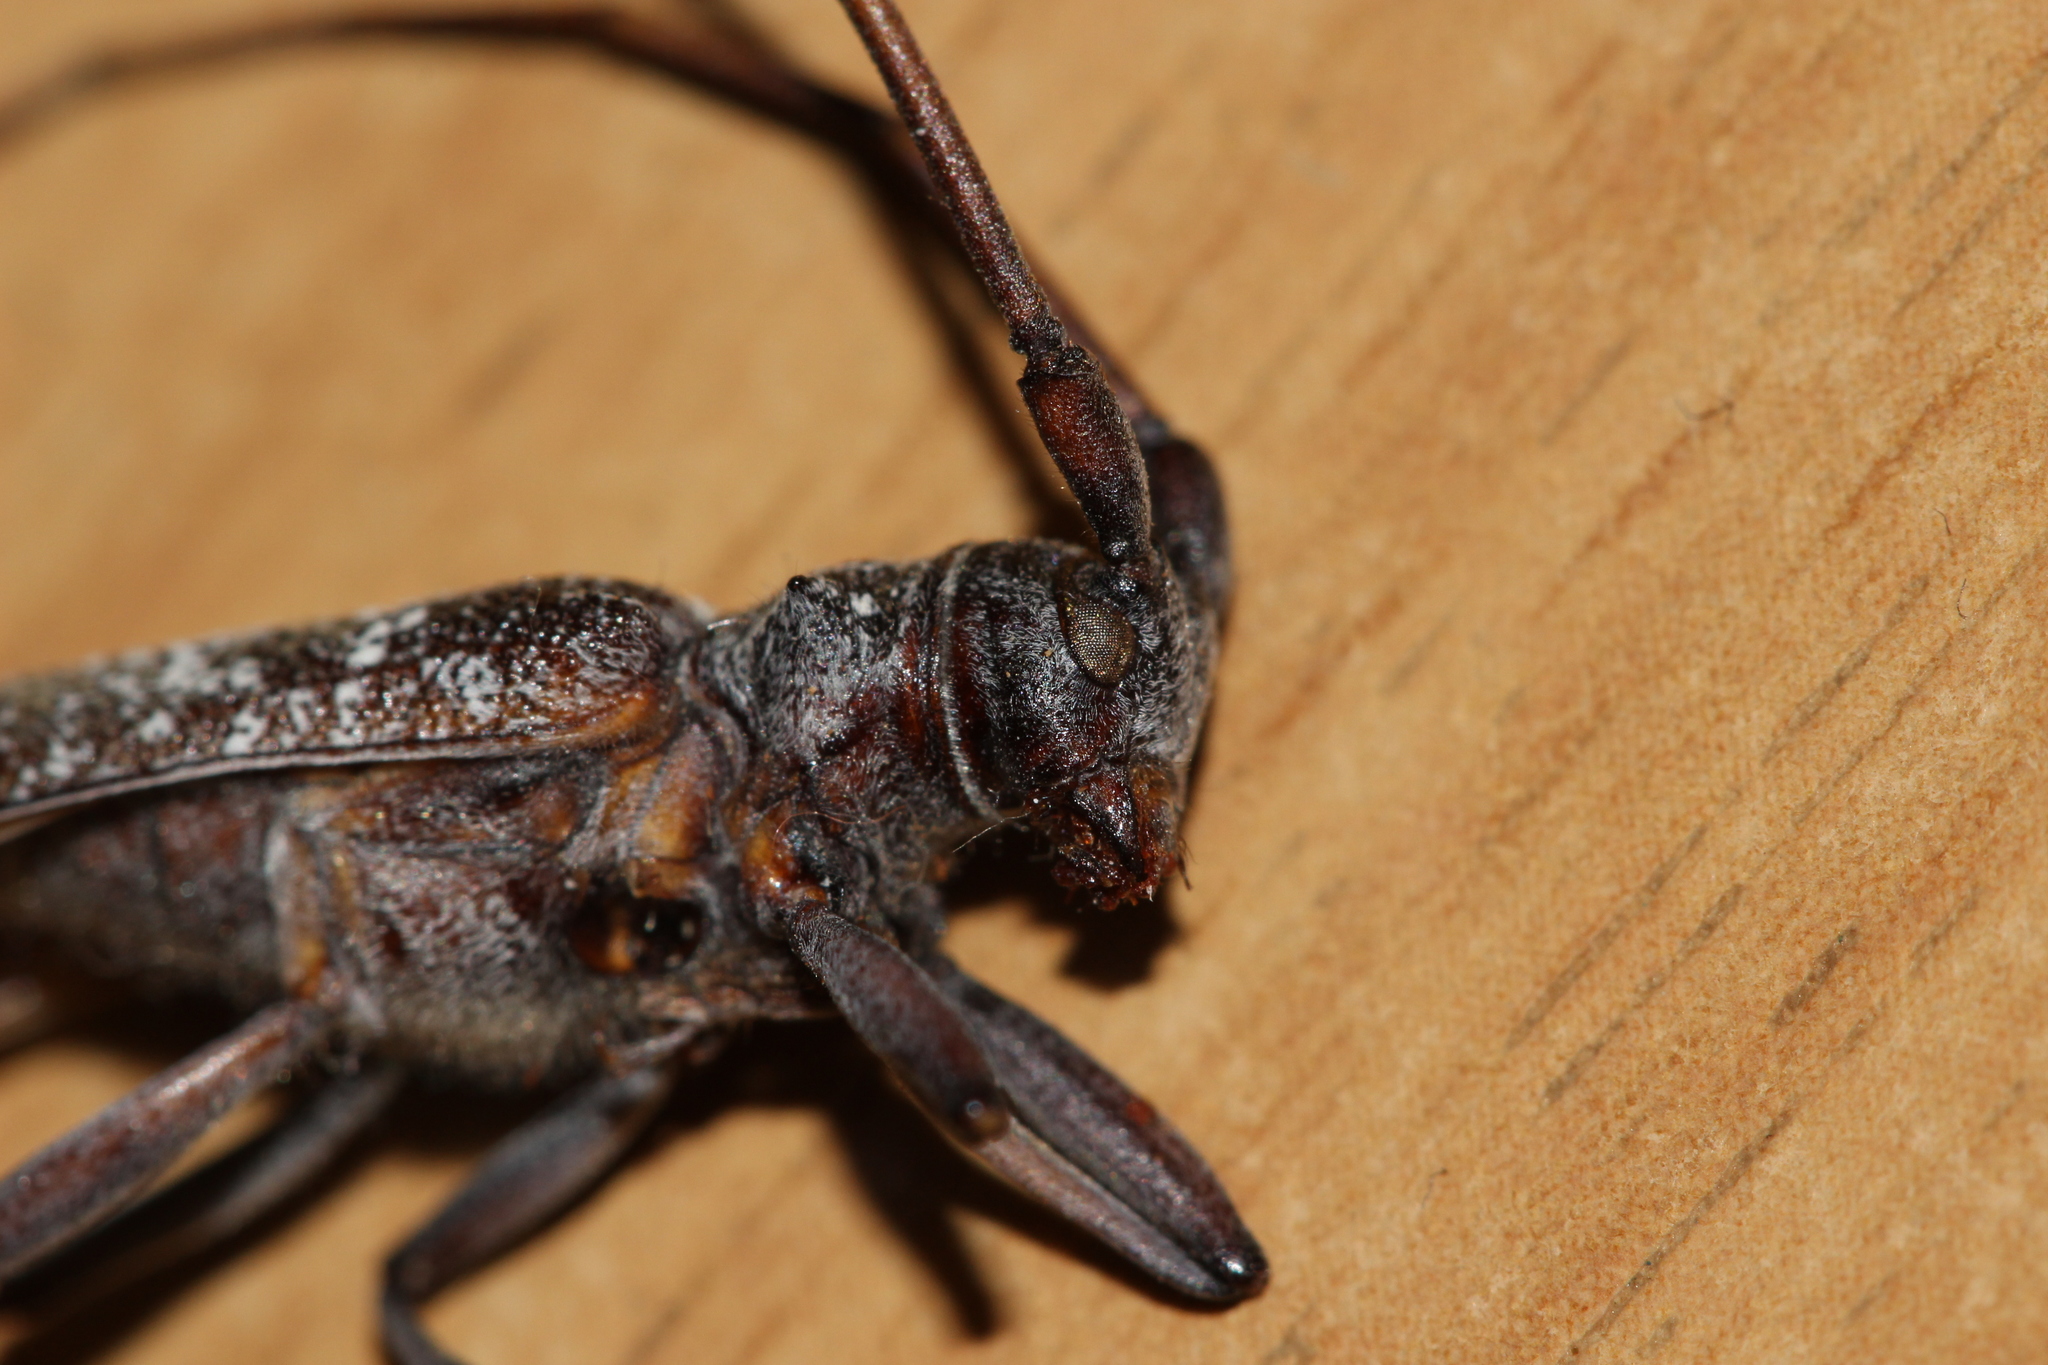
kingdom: Animalia
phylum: Arthropoda
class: Insecta
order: Coleoptera
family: Cerambycidae
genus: Monochamus
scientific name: Monochamus sutor
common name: Pine sawyer
